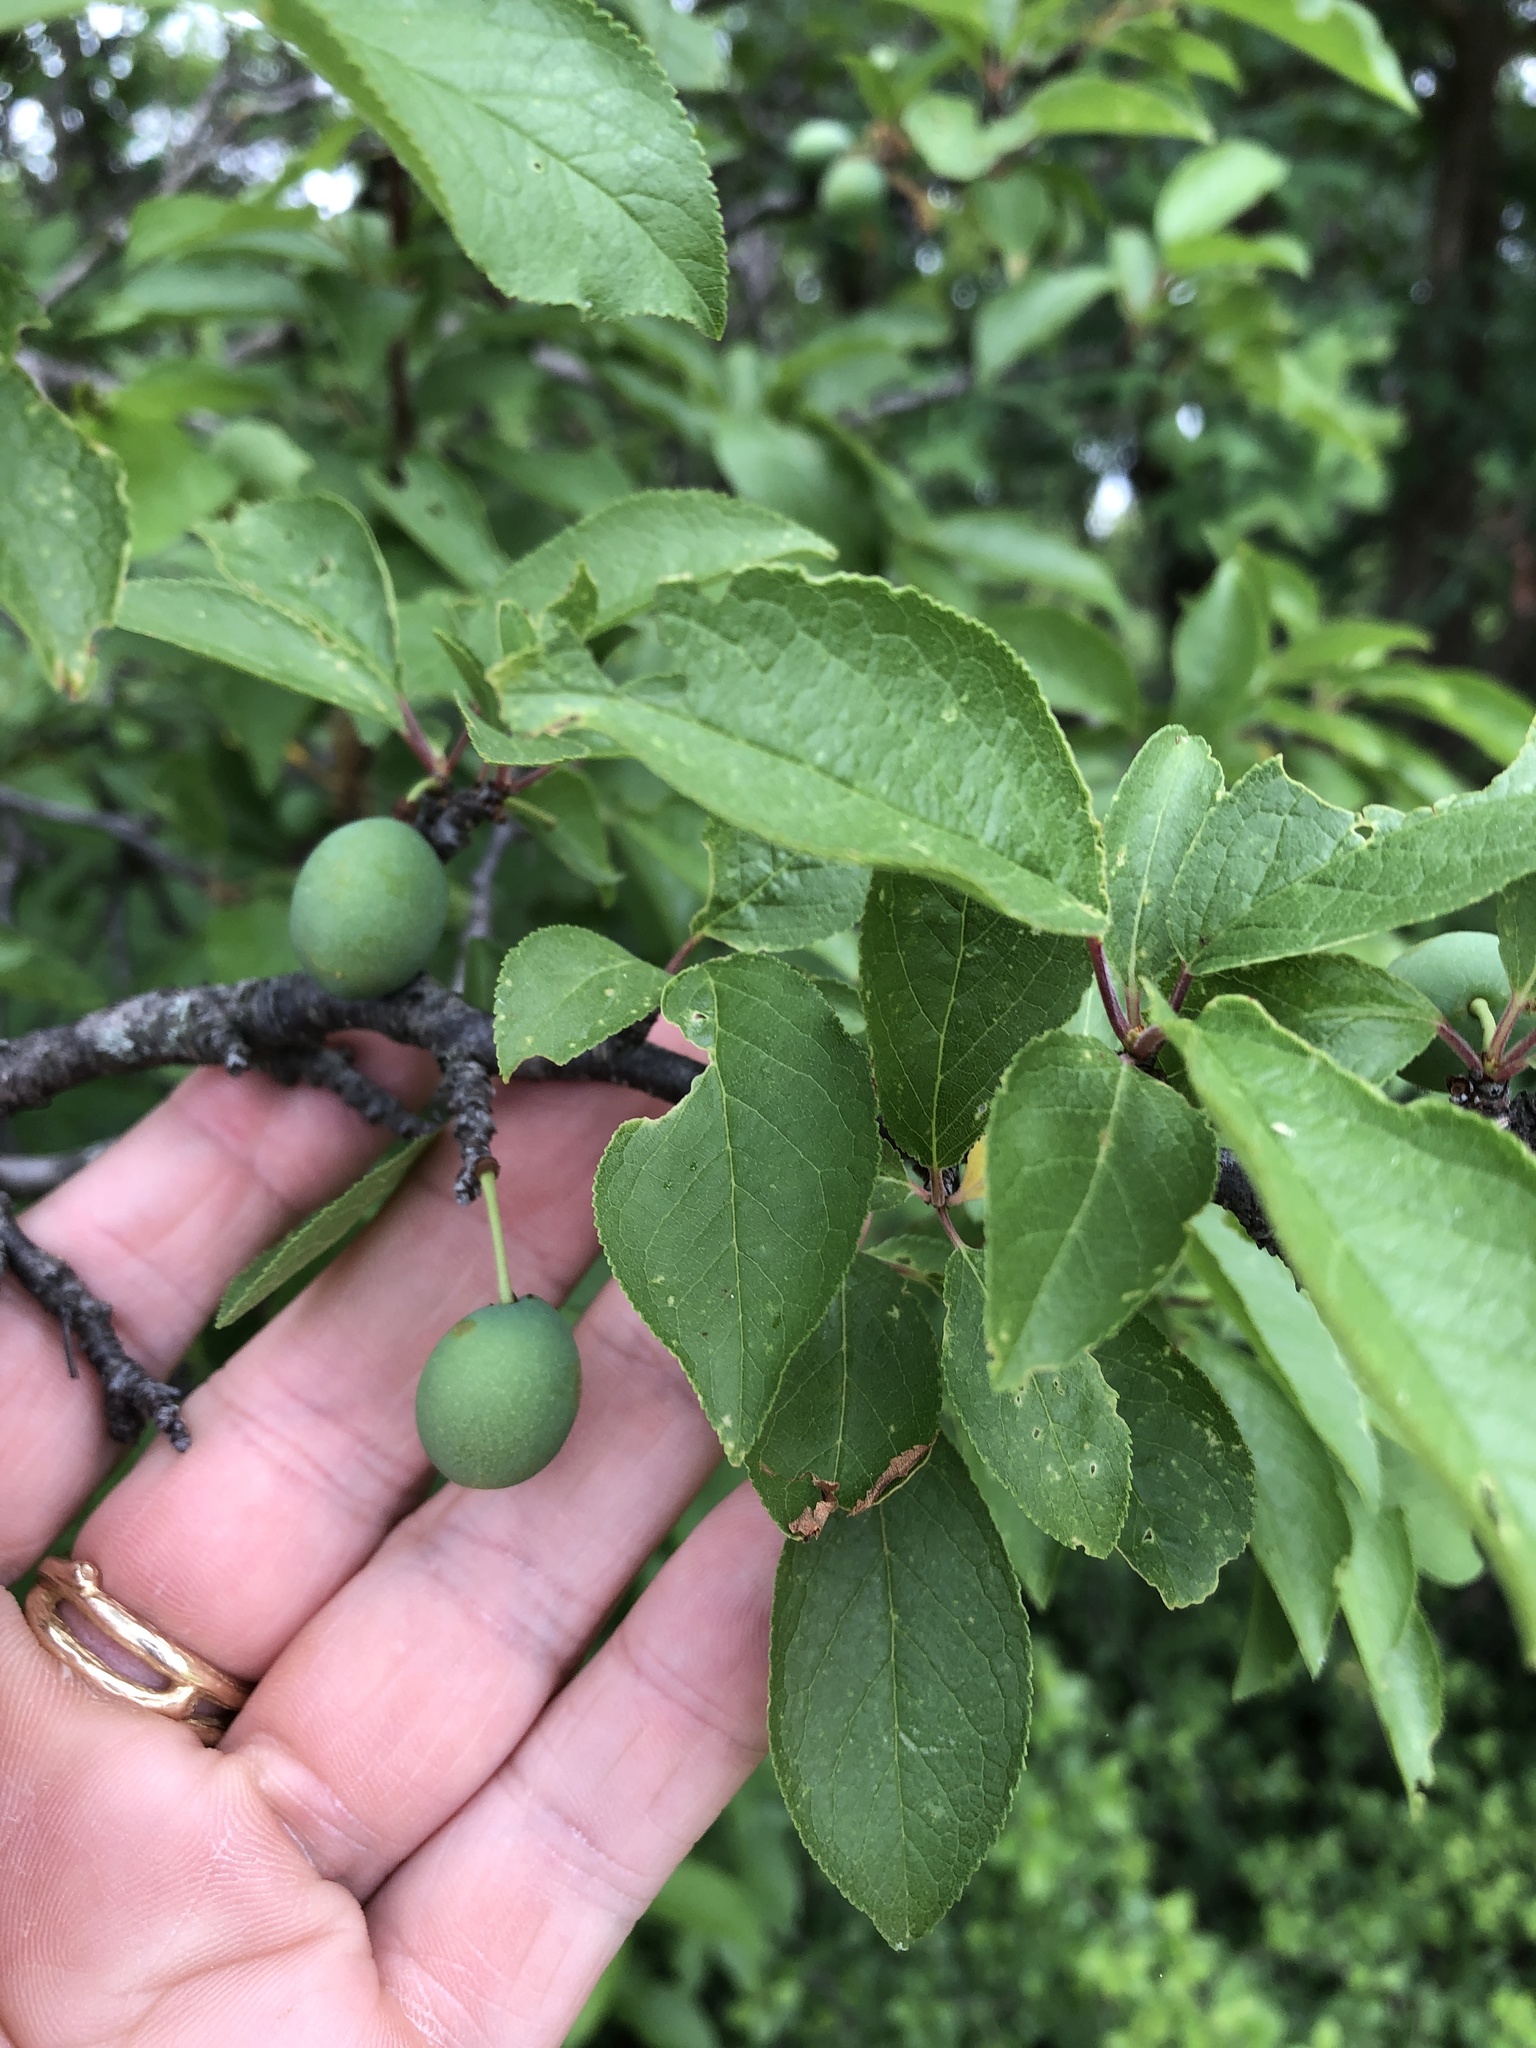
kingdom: Plantae
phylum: Tracheophyta
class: Magnoliopsida
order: Rosales
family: Rosaceae
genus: Prunus
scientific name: Prunus mexicana
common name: Mexican plum
